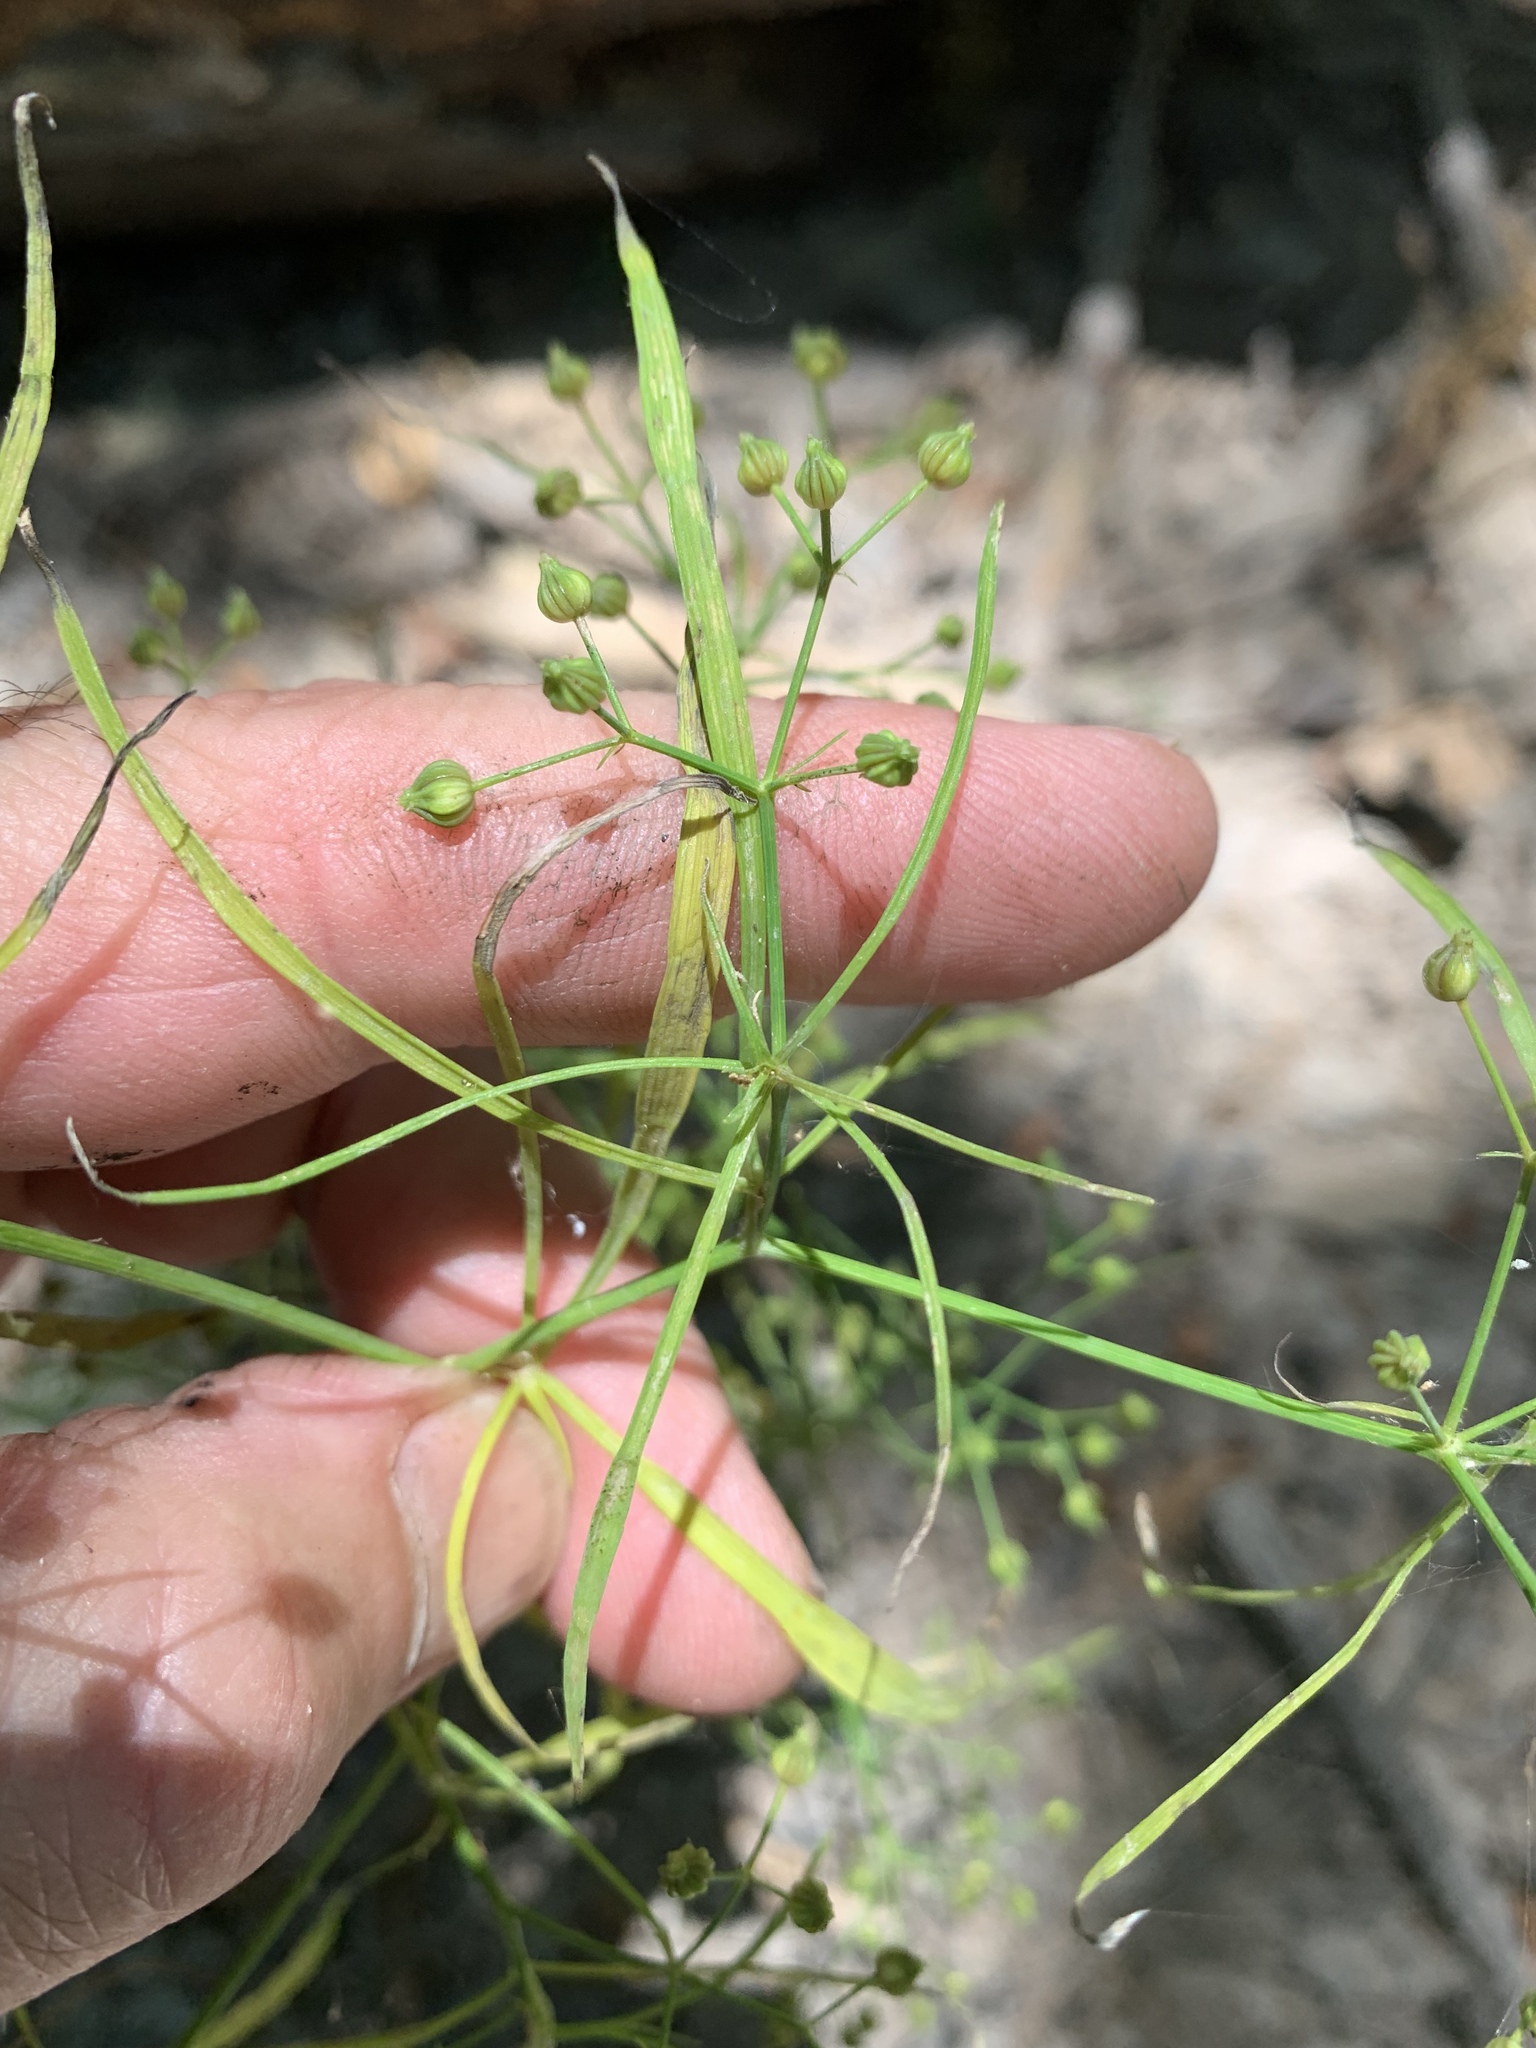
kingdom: Plantae
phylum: Tracheophyta
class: Magnoliopsida
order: Apiales
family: Apiaceae
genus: Cynosciadium
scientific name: Cynosciadium digitatum
